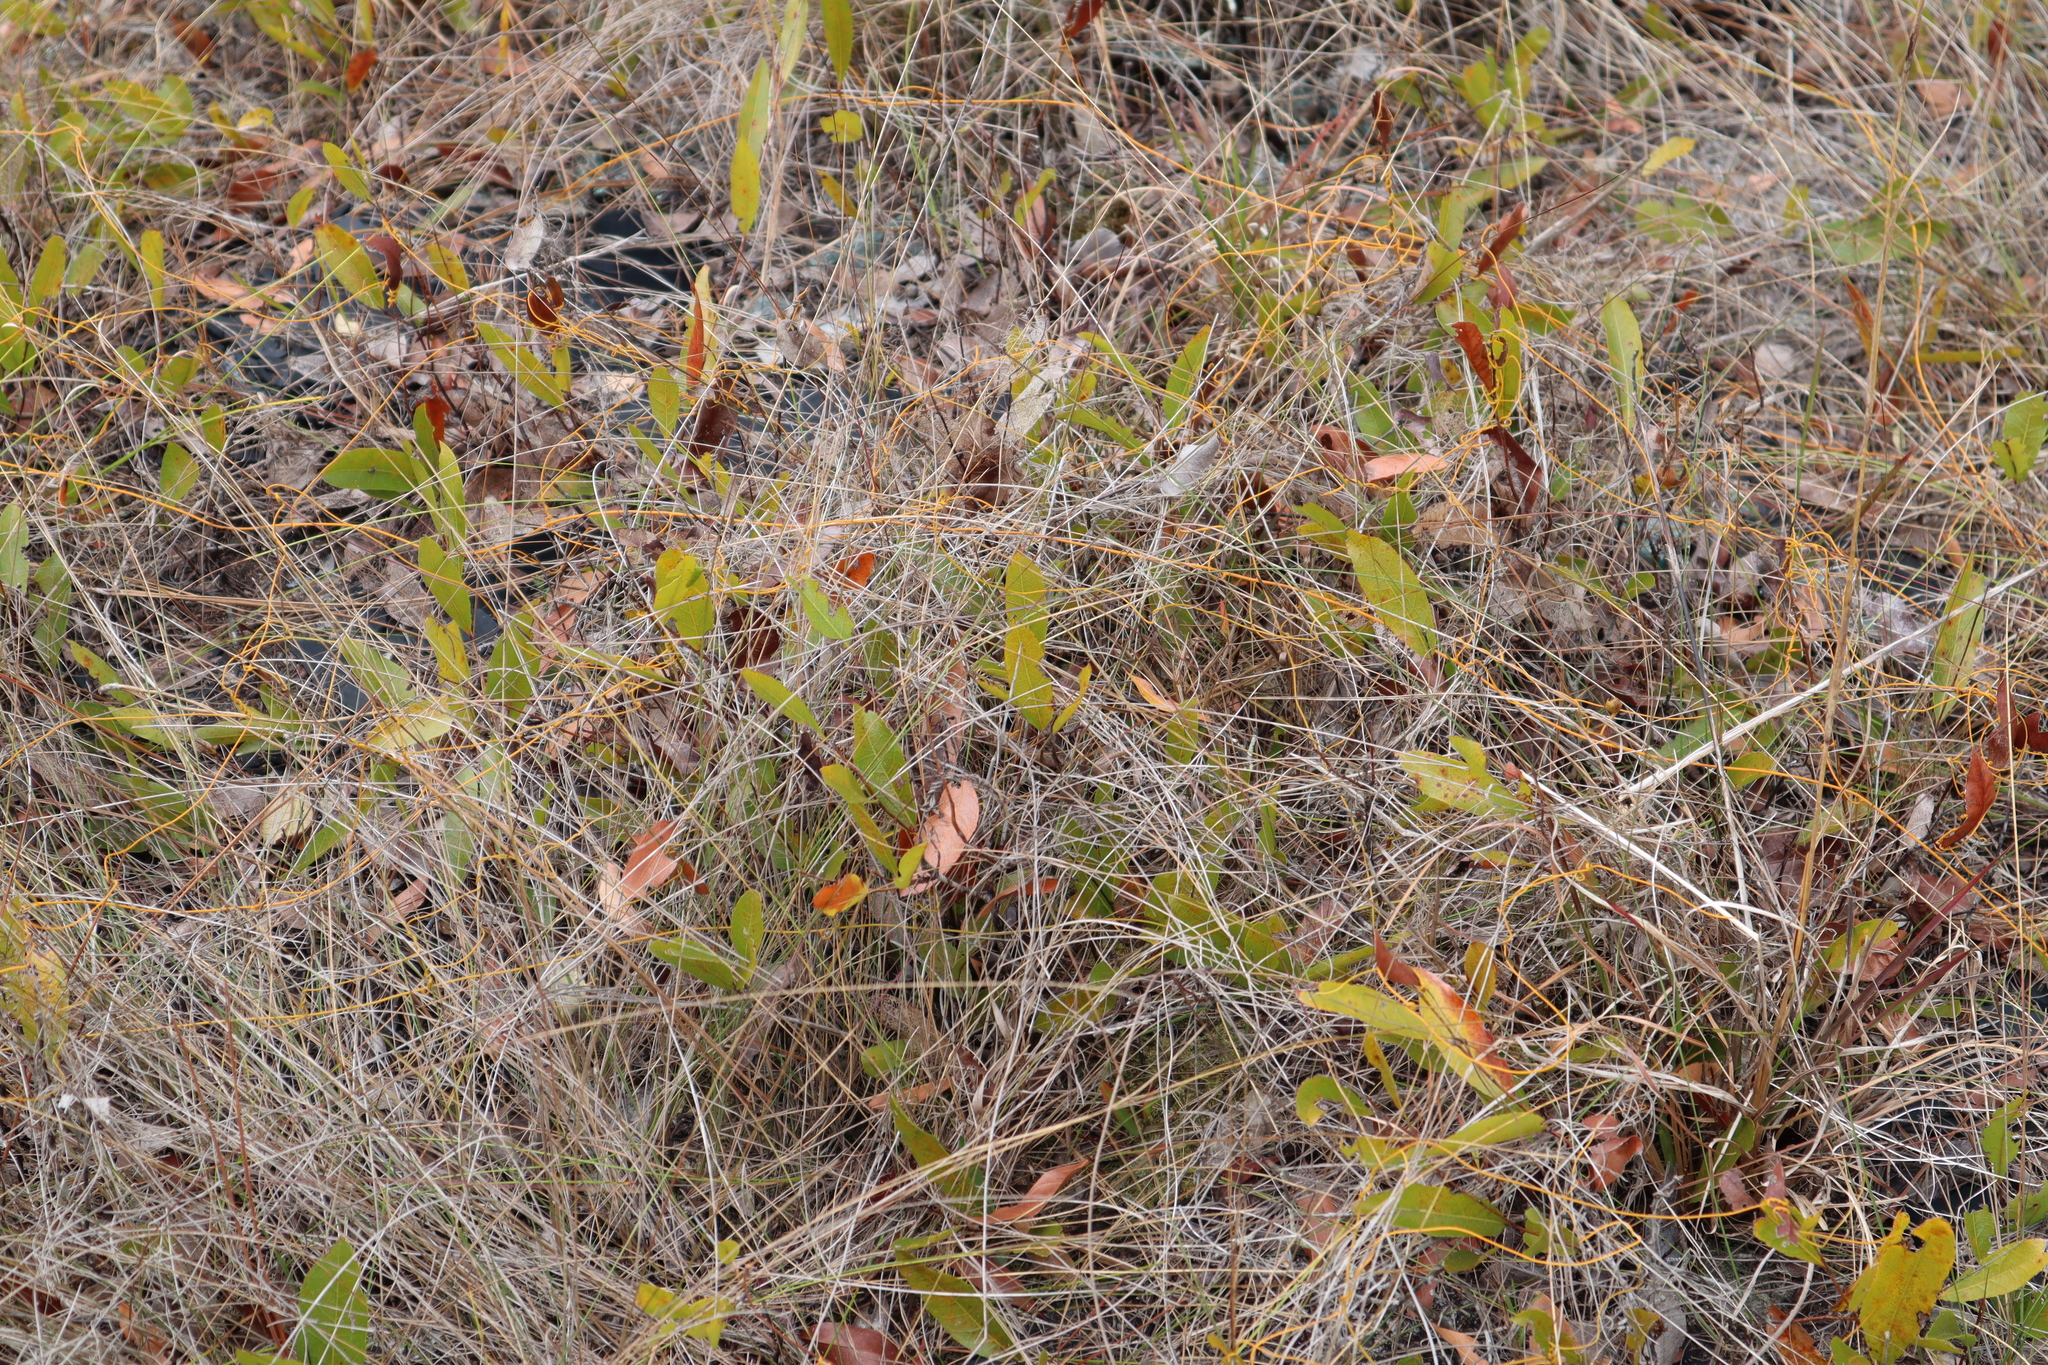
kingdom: Plantae
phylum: Tracheophyta
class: Magnoliopsida
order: Malpighiales
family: Chrysobalanaceae
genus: Geobalanus
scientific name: Geobalanus oblongifolius
